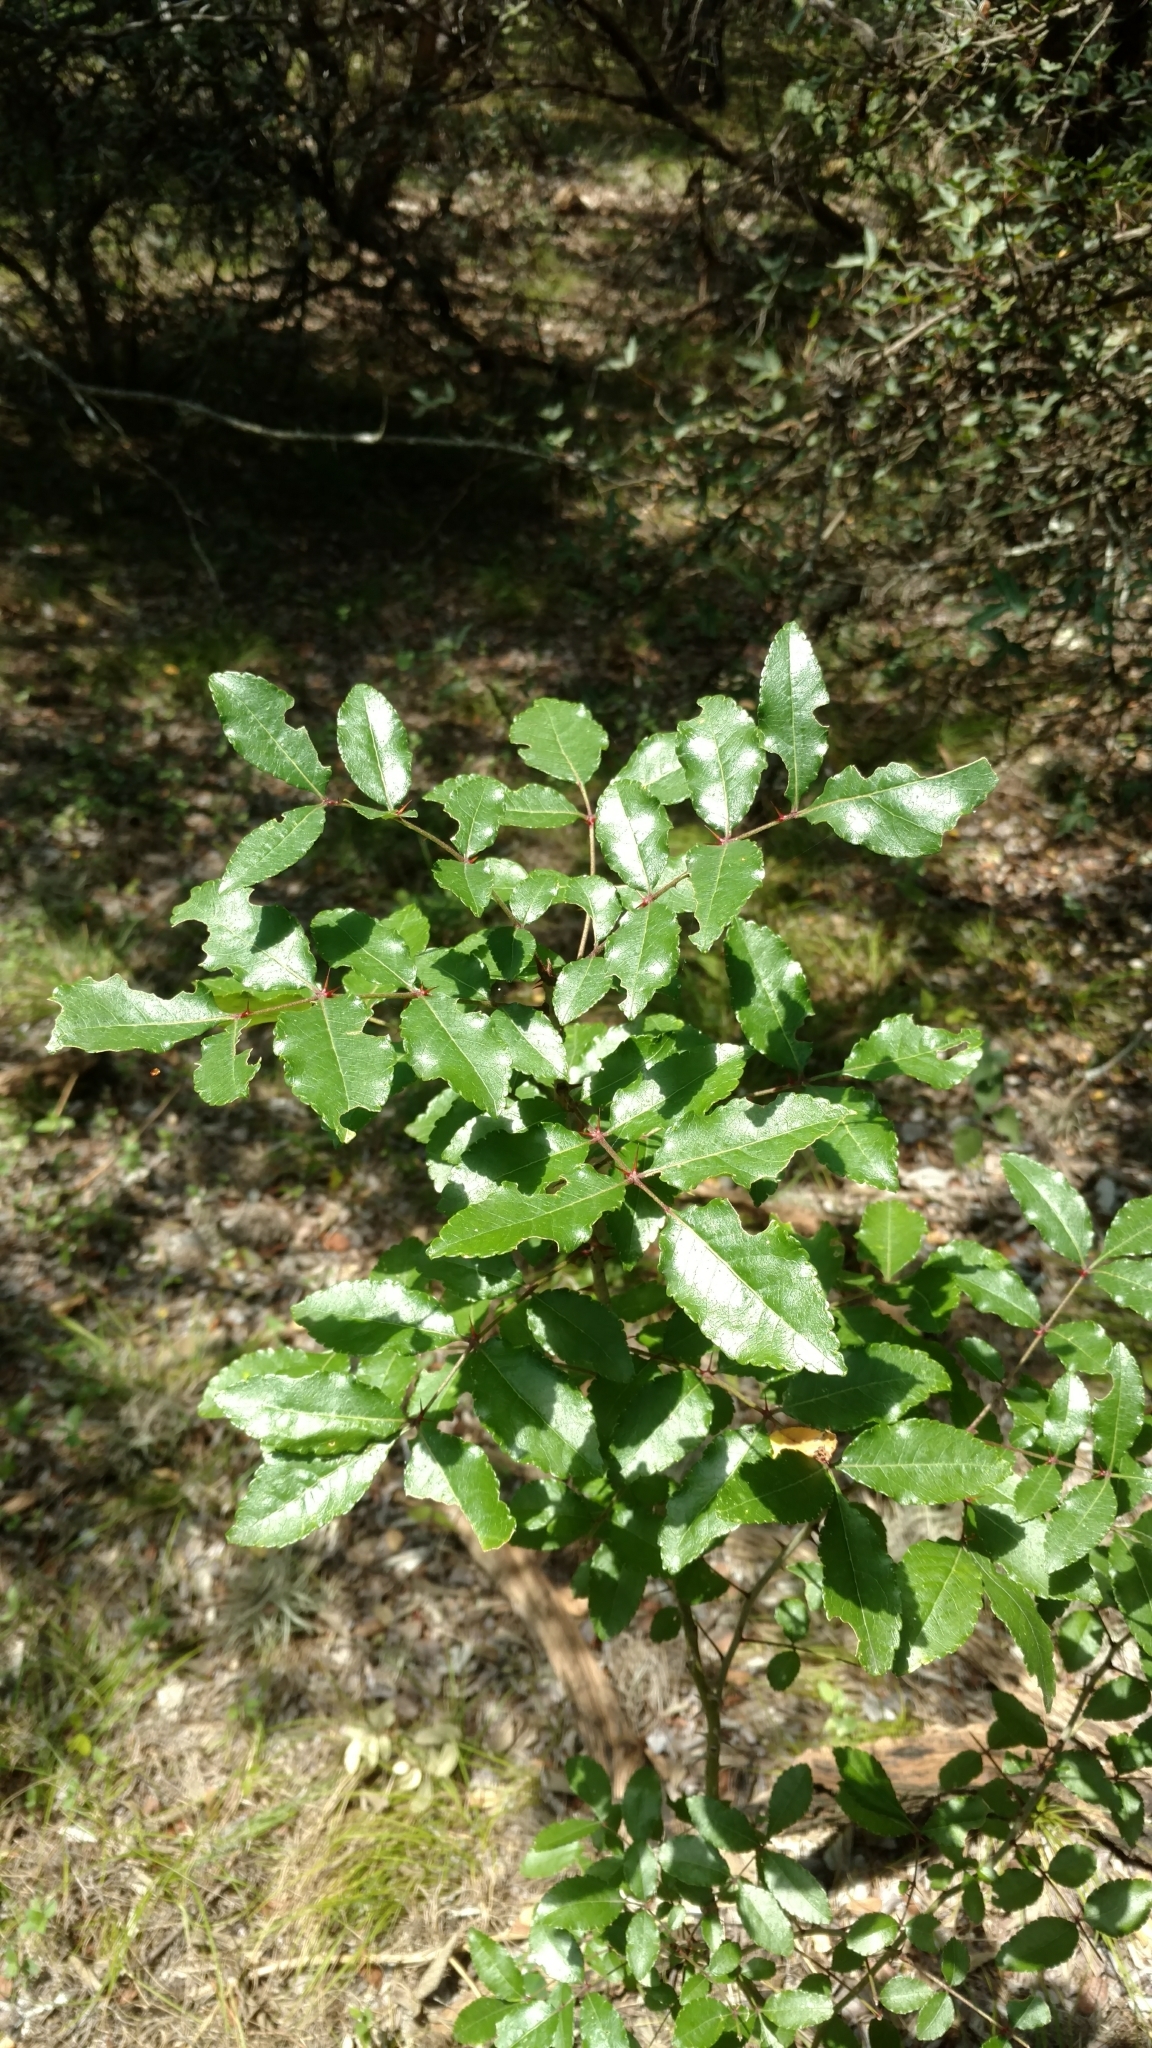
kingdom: Plantae
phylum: Tracheophyta
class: Magnoliopsida
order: Sapindales
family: Rutaceae
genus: Zanthoxylum
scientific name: Zanthoxylum clava-herculis
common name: Hercules'-club
